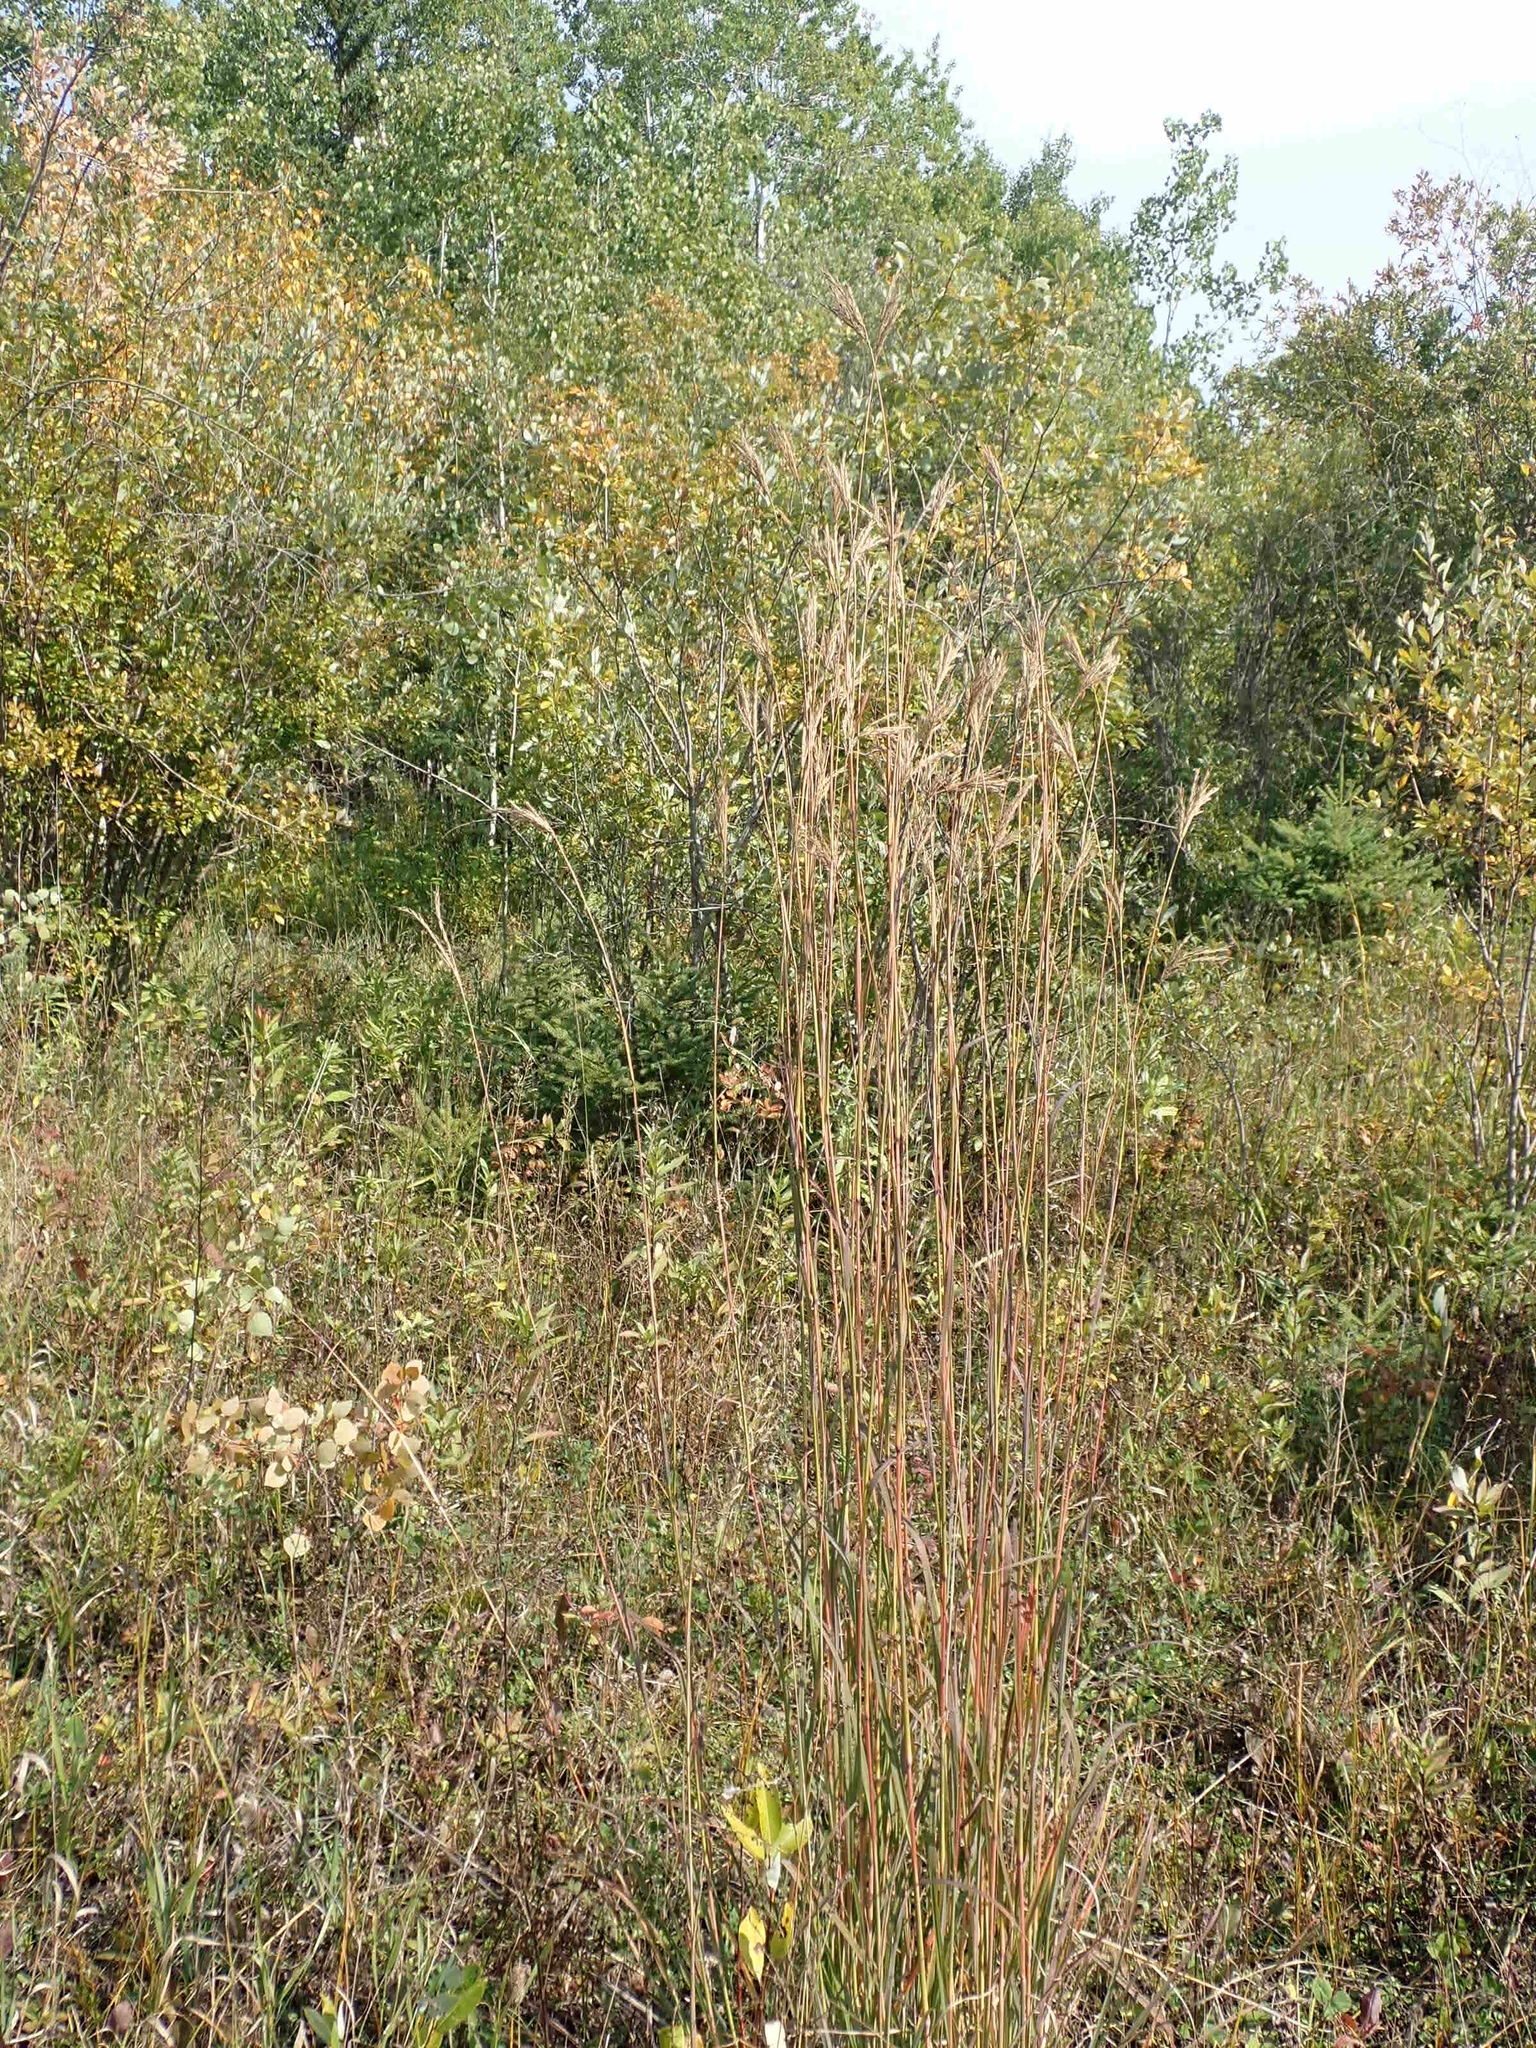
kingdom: Plantae
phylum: Tracheophyta
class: Liliopsida
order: Poales
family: Poaceae
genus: Andropogon
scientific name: Andropogon gerardi
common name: Big bluestem
